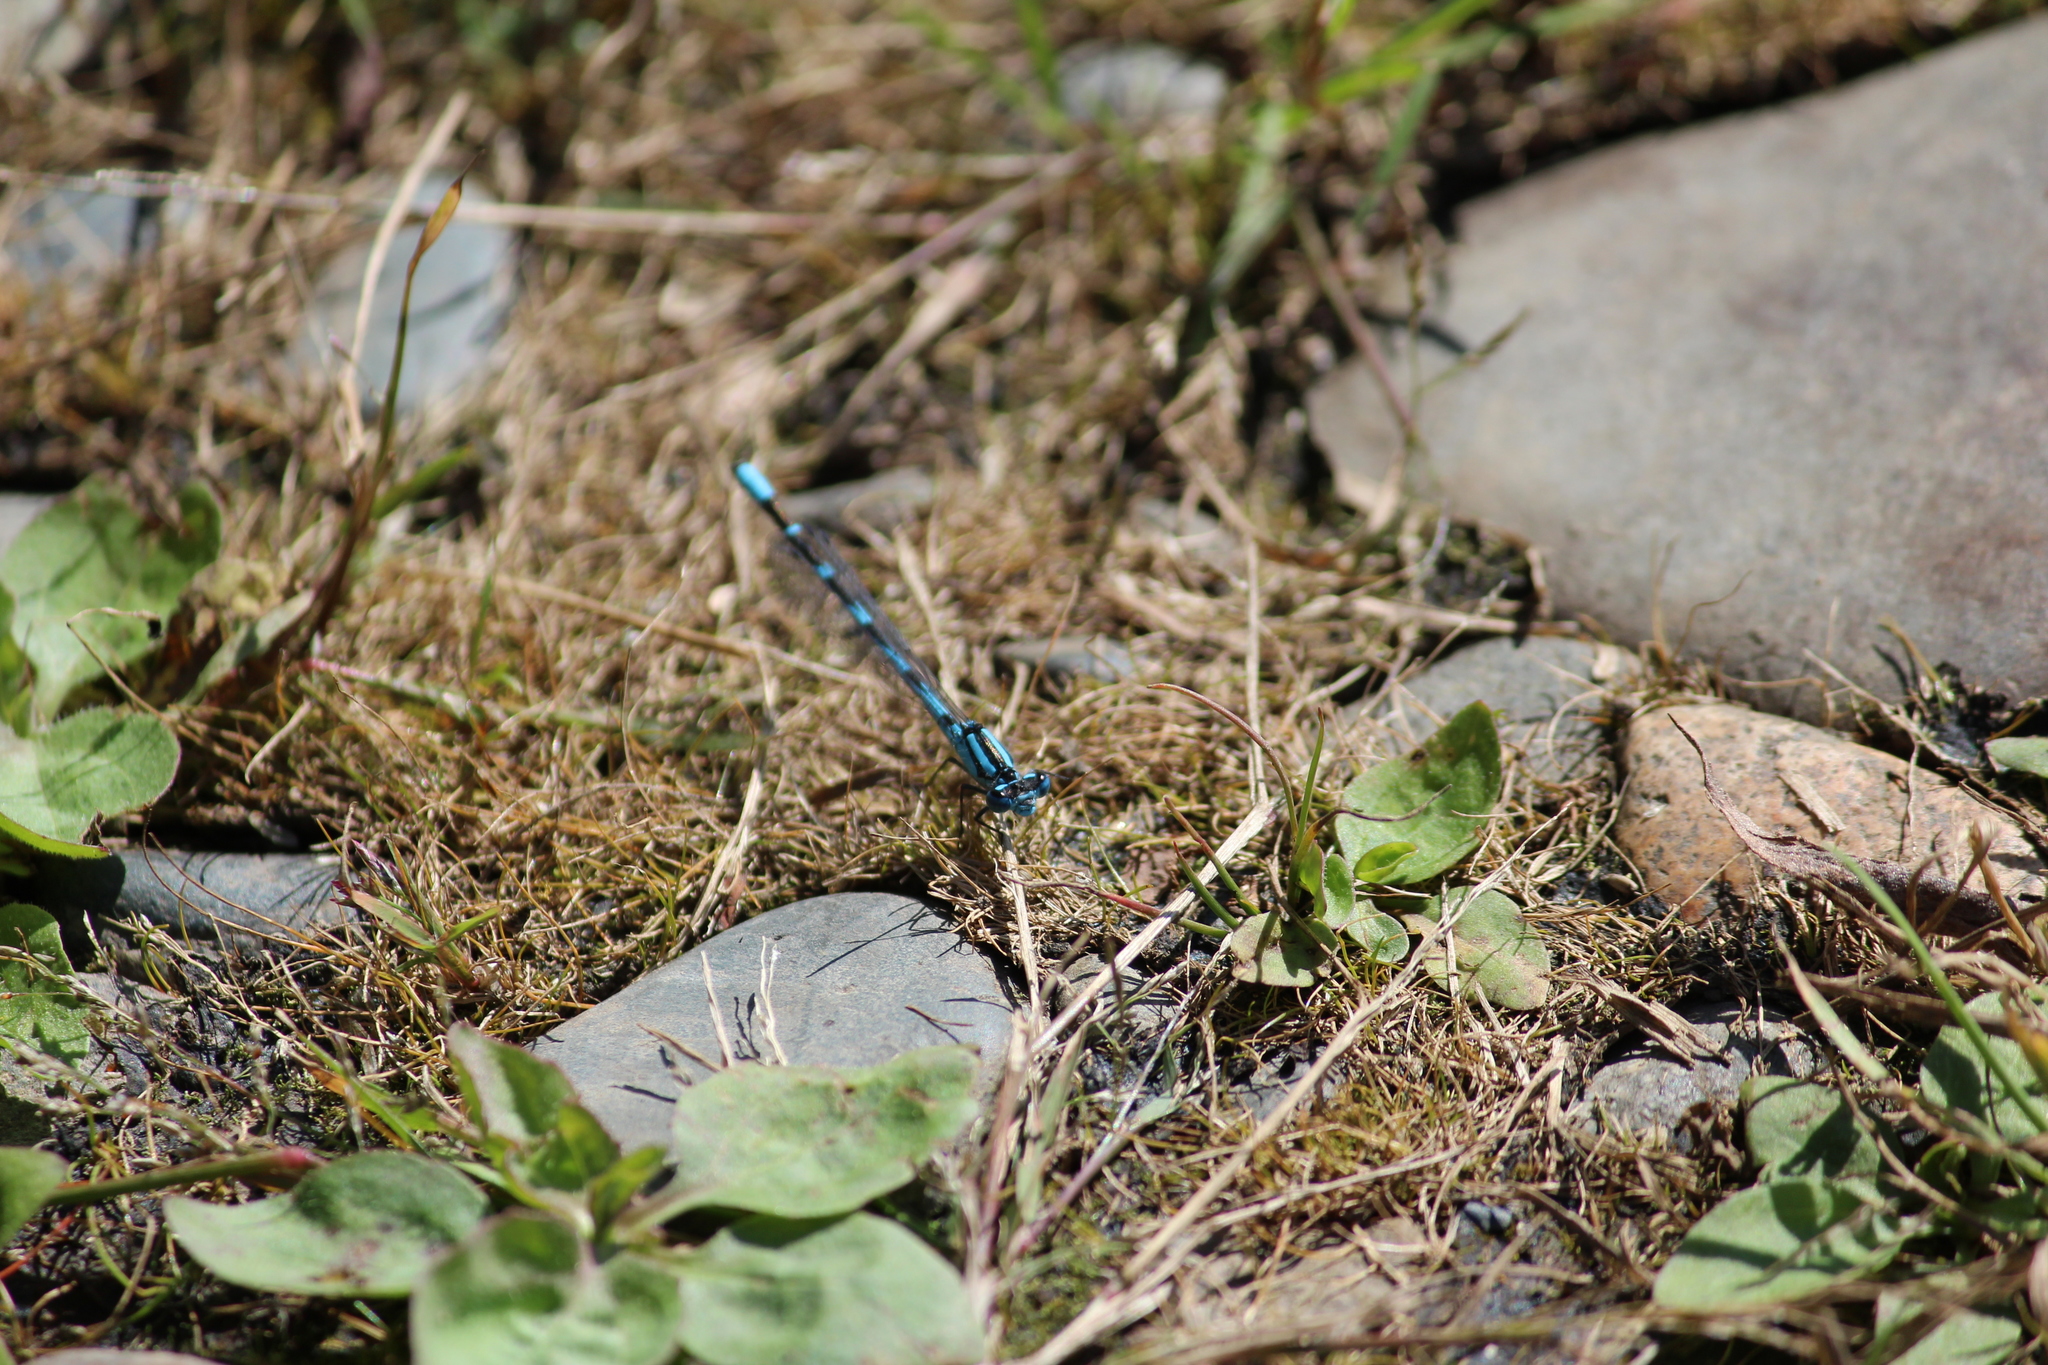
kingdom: Animalia
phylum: Arthropoda
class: Insecta
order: Odonata
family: Coenagrionidae
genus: Enallagma
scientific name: Enallagma cyathigerum
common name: Common blue damselfly
